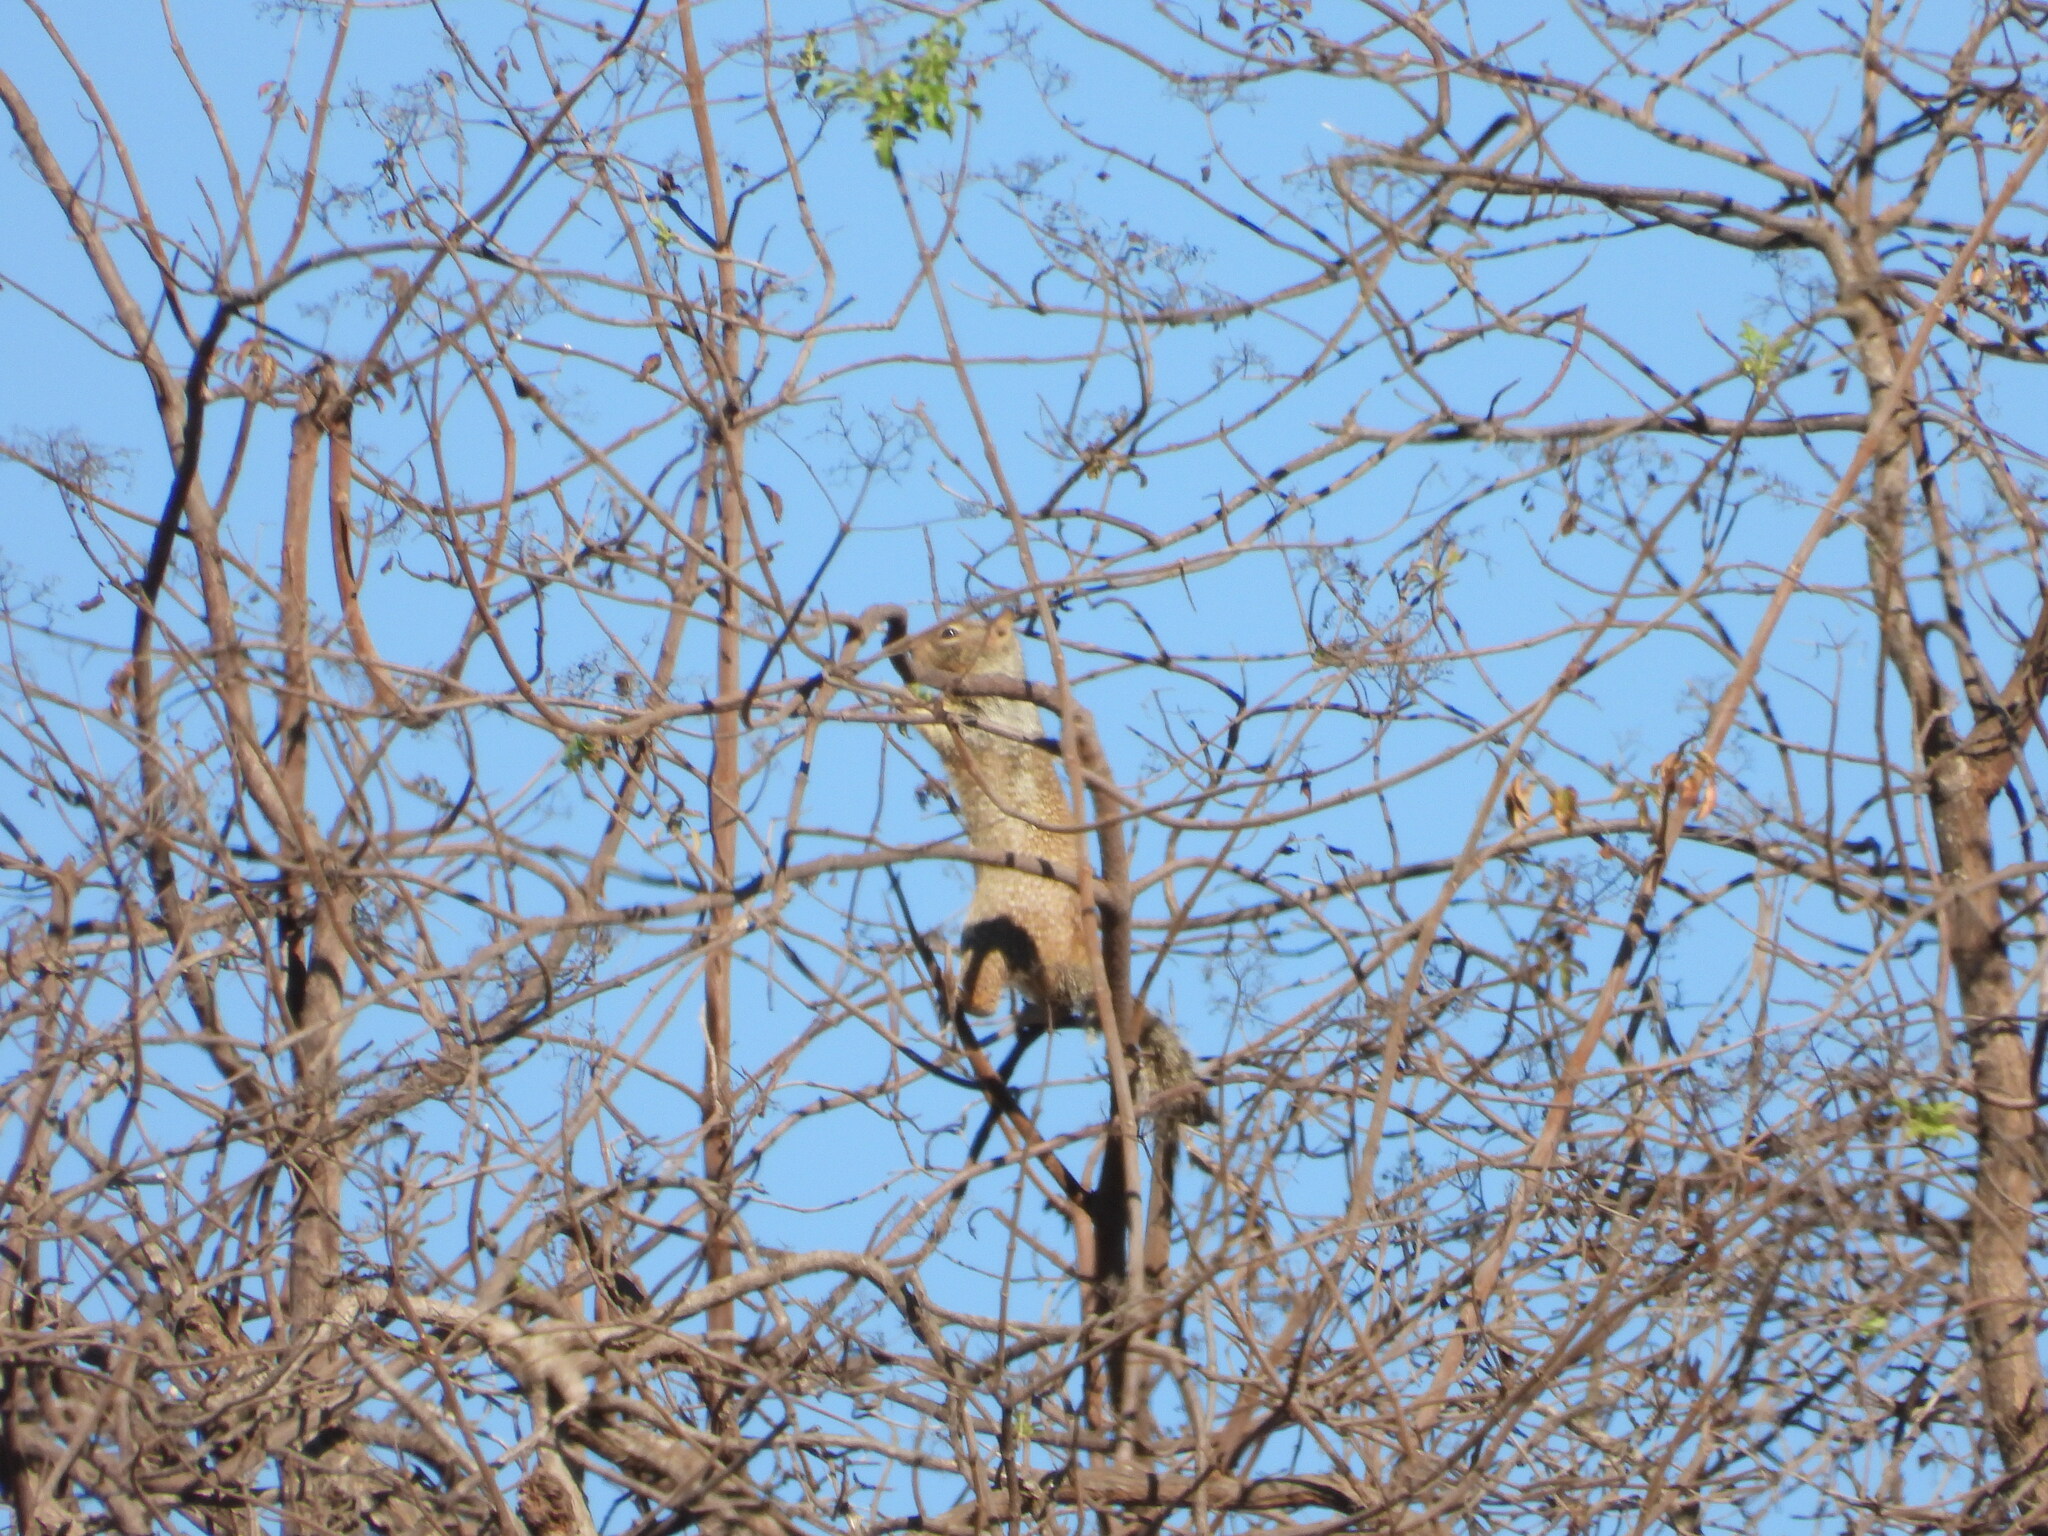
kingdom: Animalia
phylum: Chordata
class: Mammalia
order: Rodentia
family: Sciuridae
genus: Otospermophilus
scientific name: Otospermophilus beecheyi
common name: California ground squirrel
